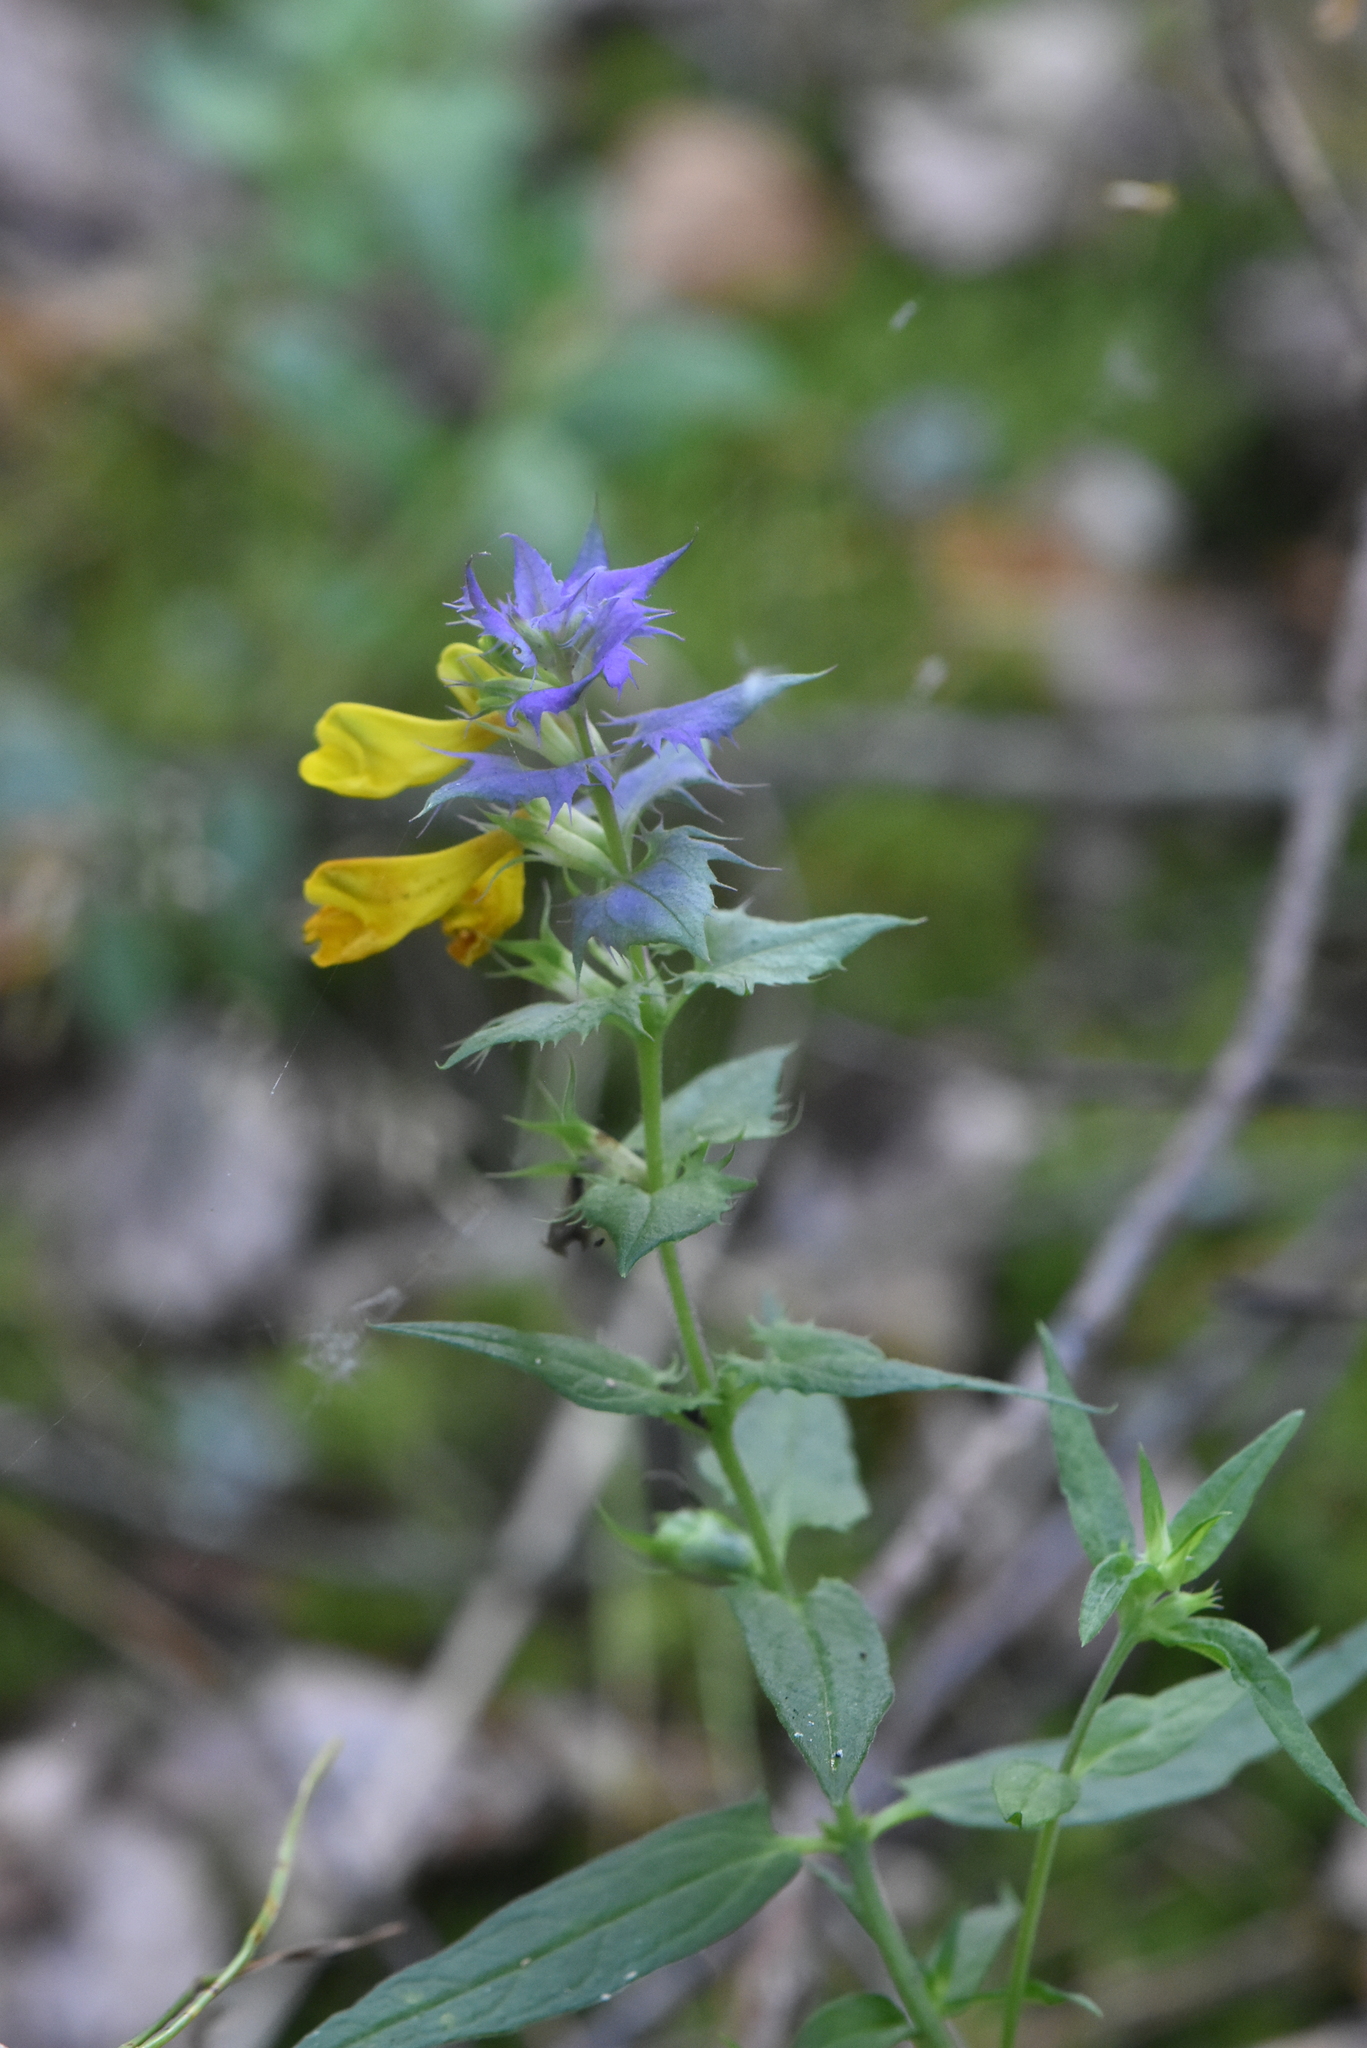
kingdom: Plantae
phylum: Tracheophyta
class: Magnoliopsida
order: Lamiales
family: Orobanchaceae
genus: Melampyrum
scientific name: Melampyrum nemorosum
